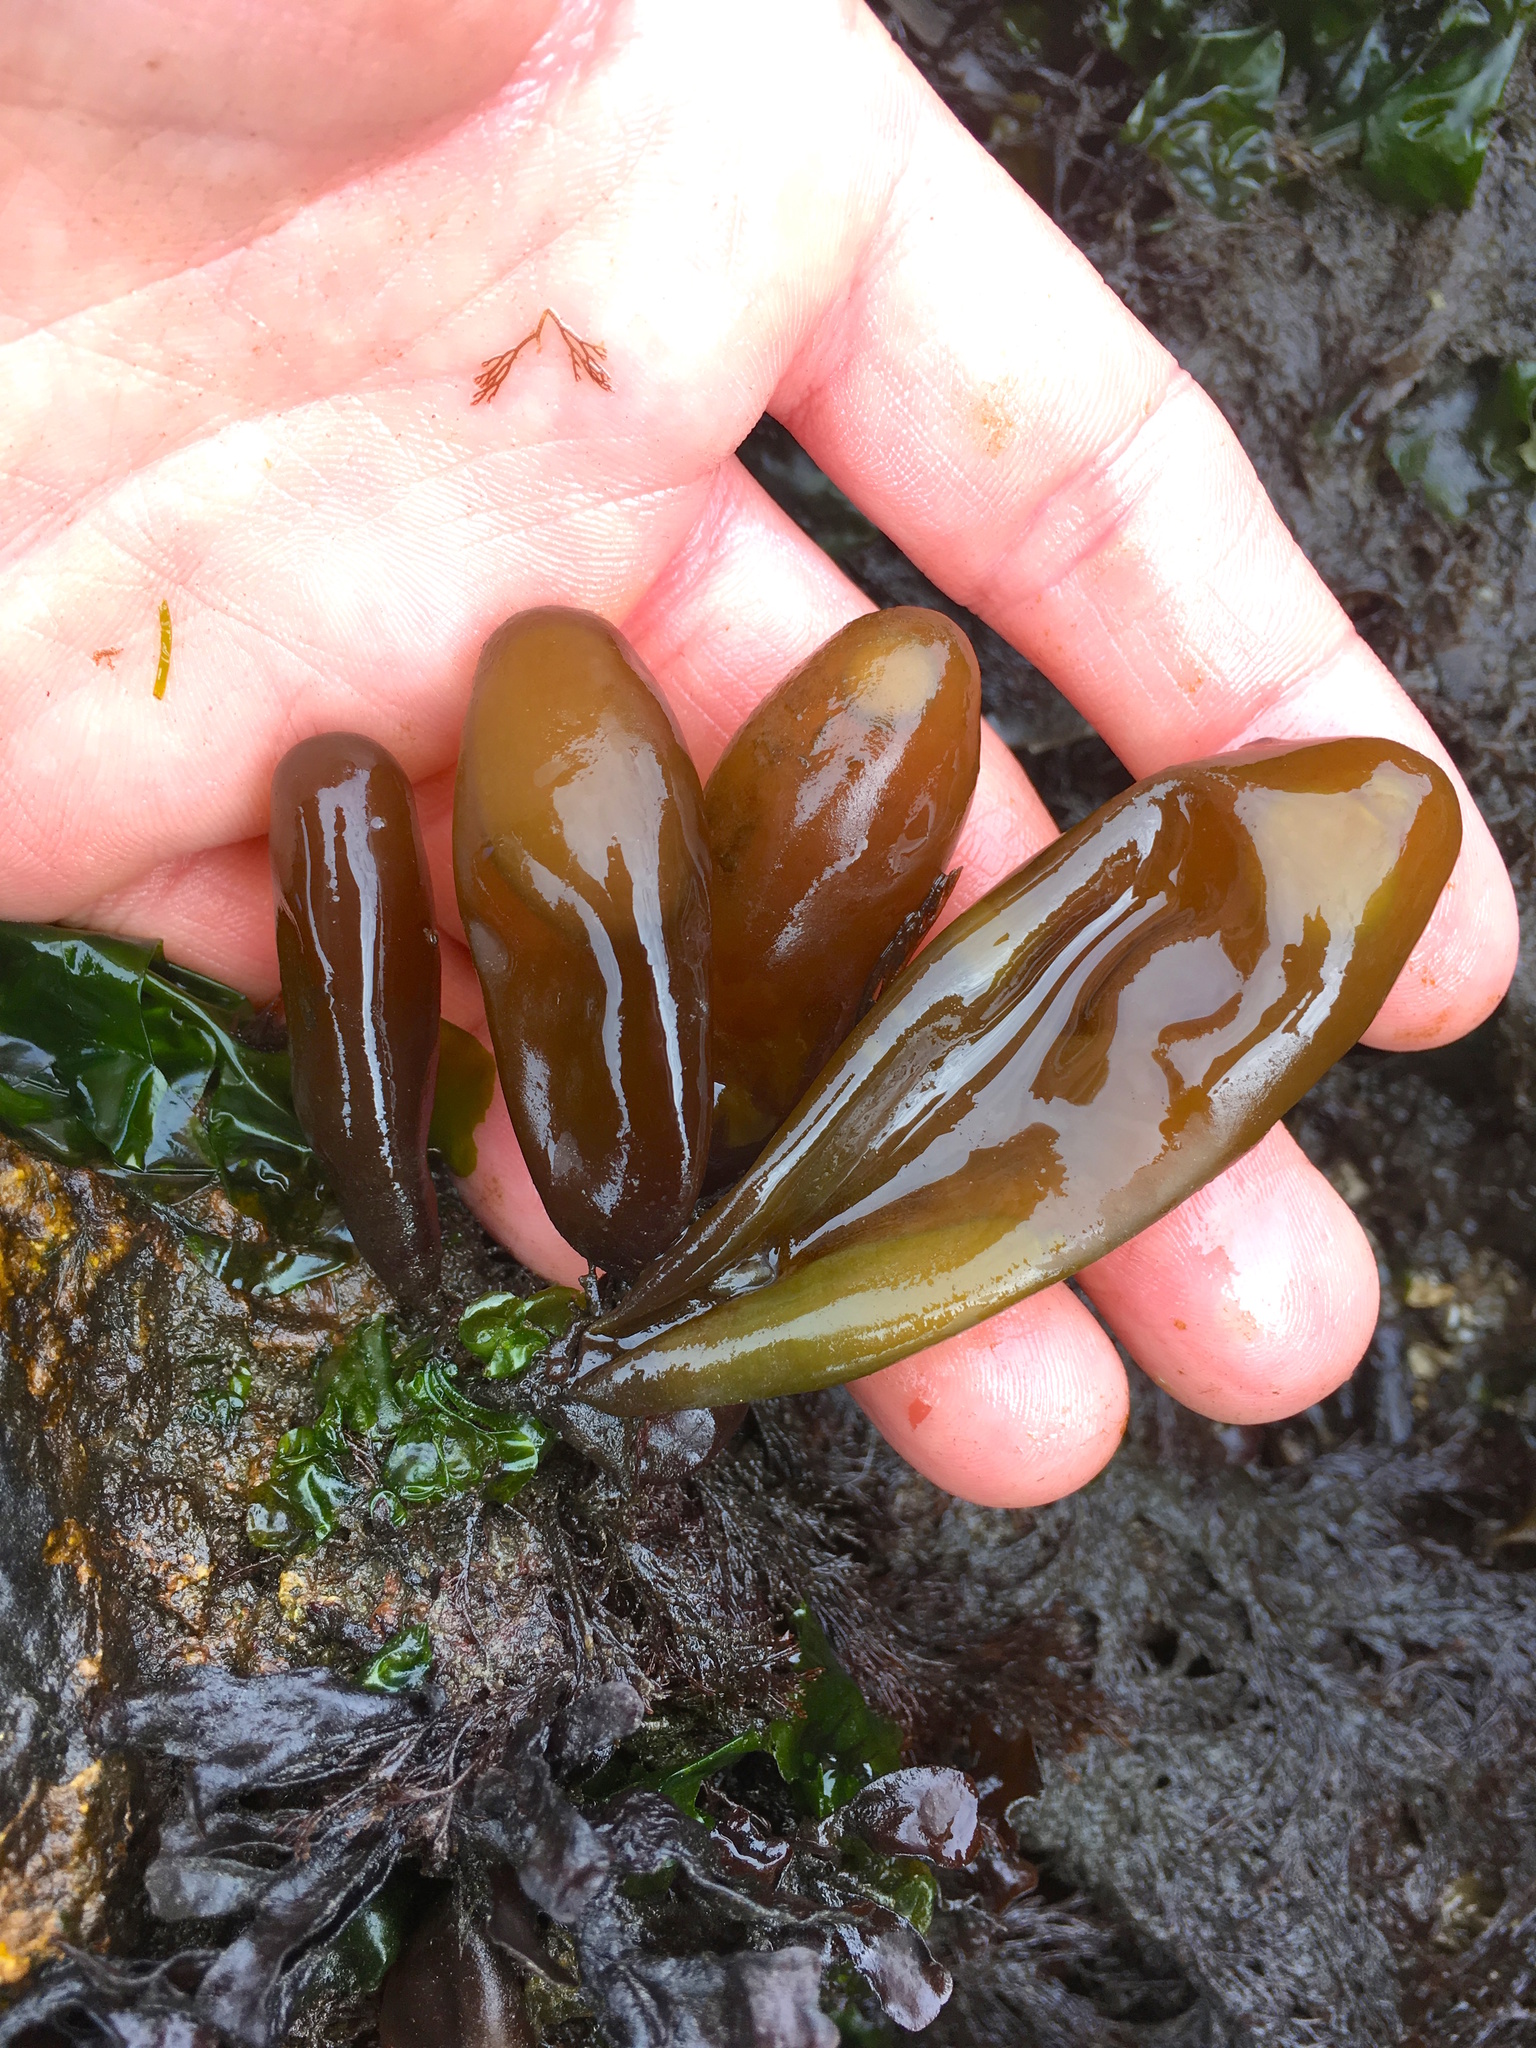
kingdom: Plantae
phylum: Rhodophyta
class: Florideophyceae
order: Palmariales
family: Palmariaceae
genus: Halosaccion
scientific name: Halosaccion glandiforme
